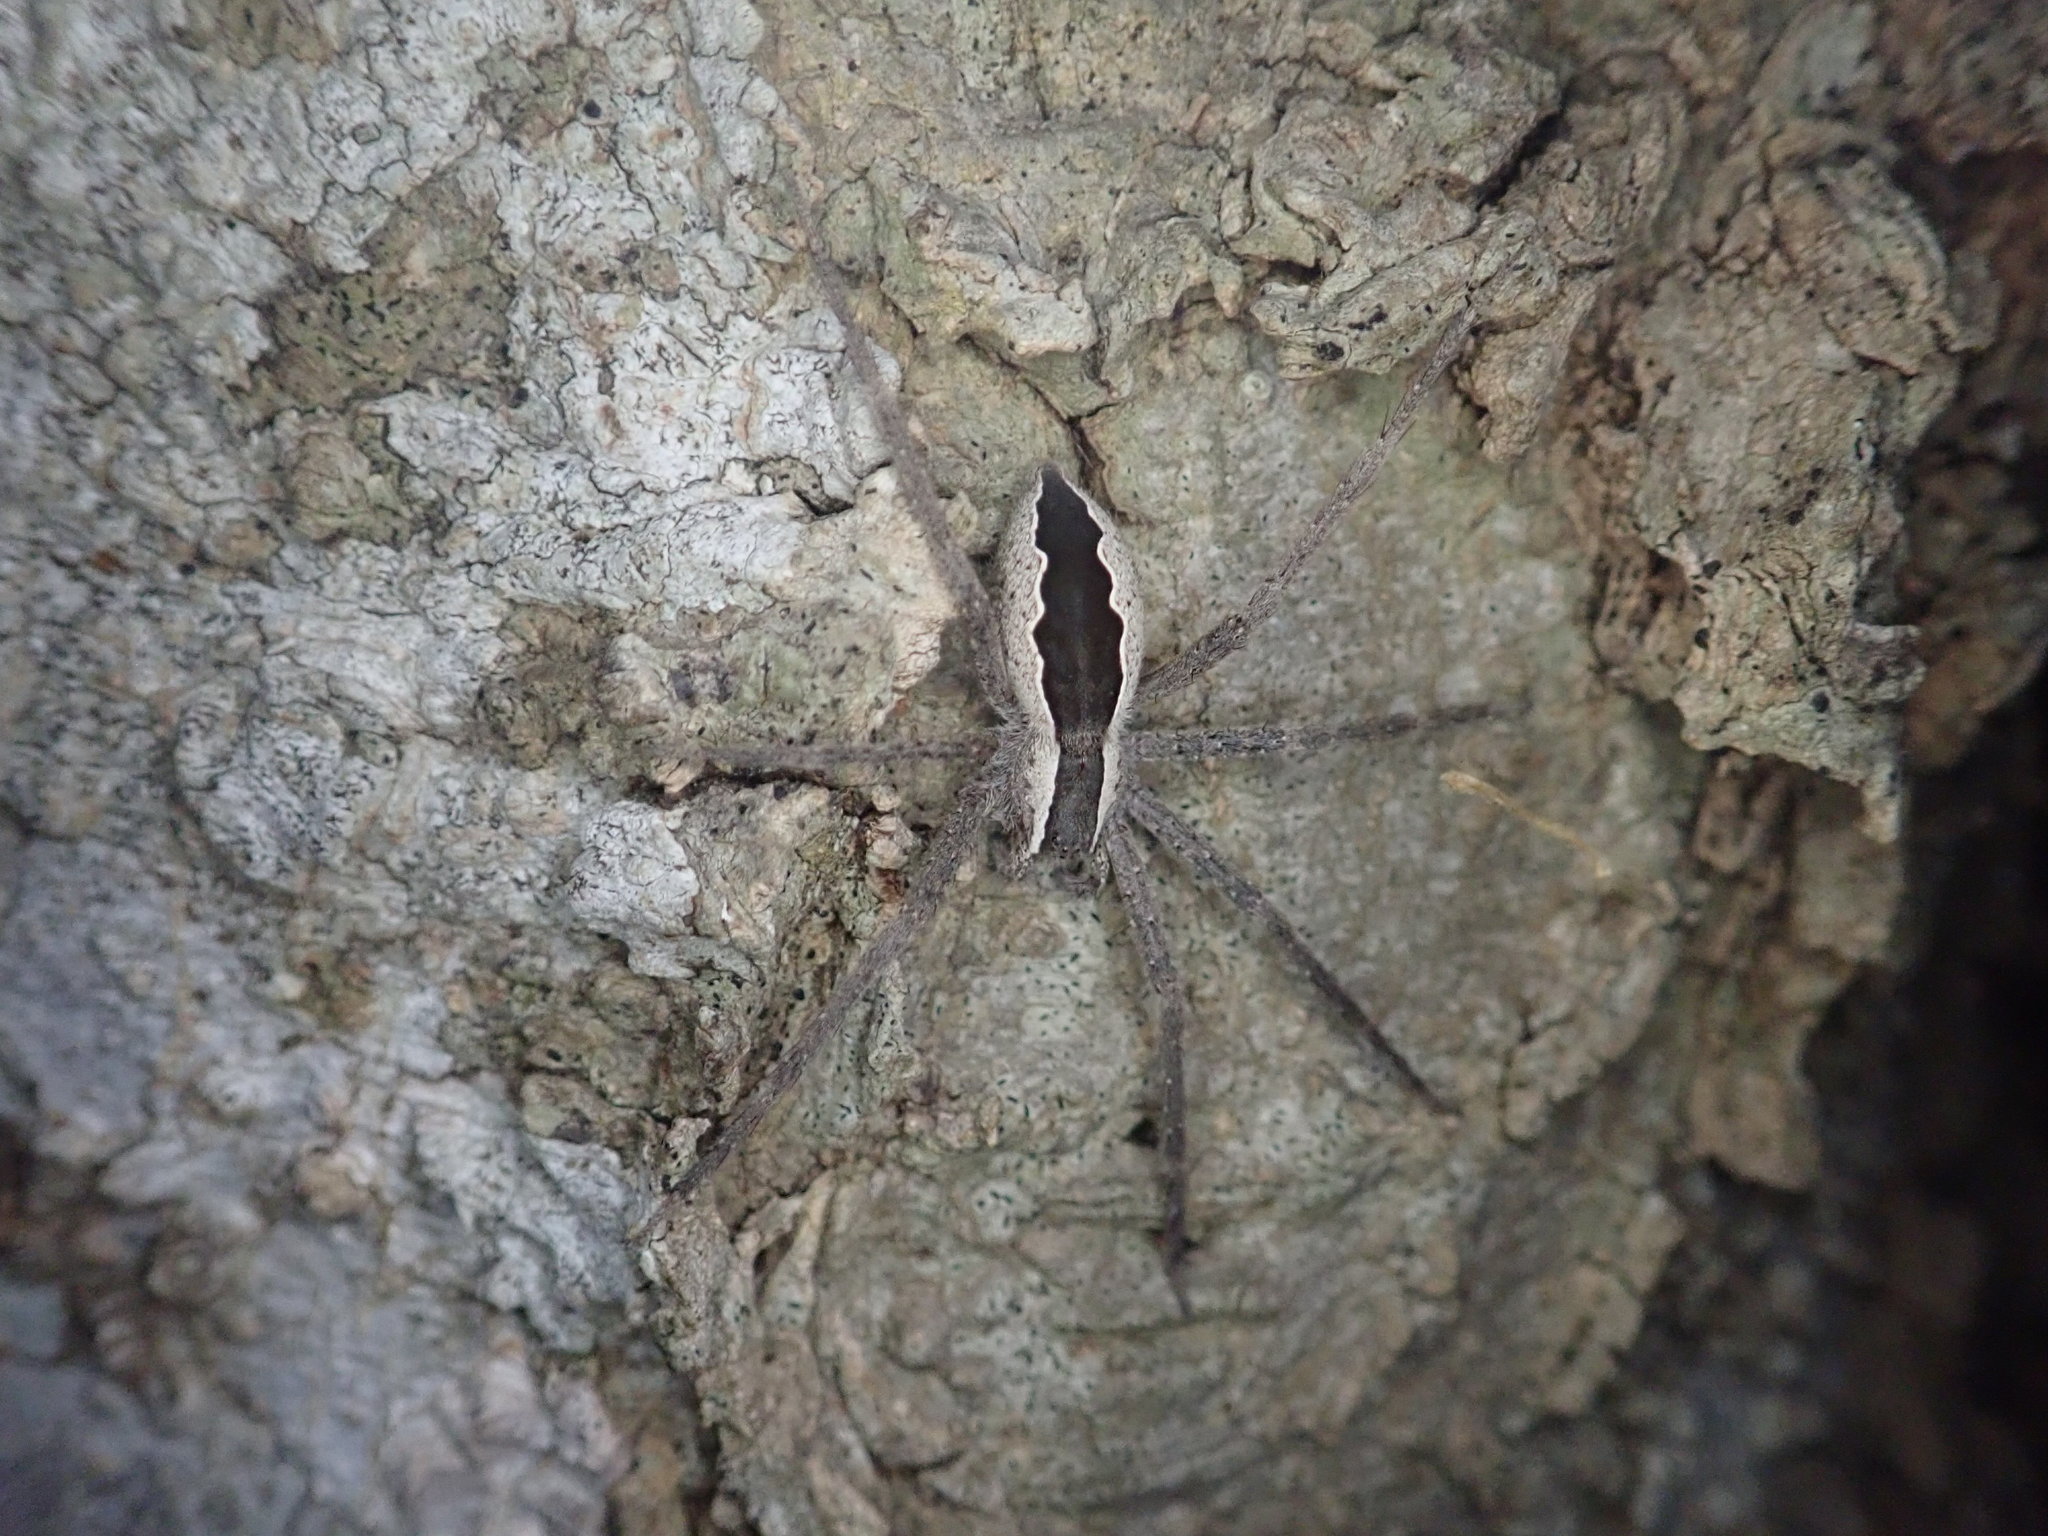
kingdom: Animalia
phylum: Arthropoda
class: Arachnida
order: Araneae
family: Pisauridae
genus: Pisaurina
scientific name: Pisaurina mira
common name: American nursery web spider
